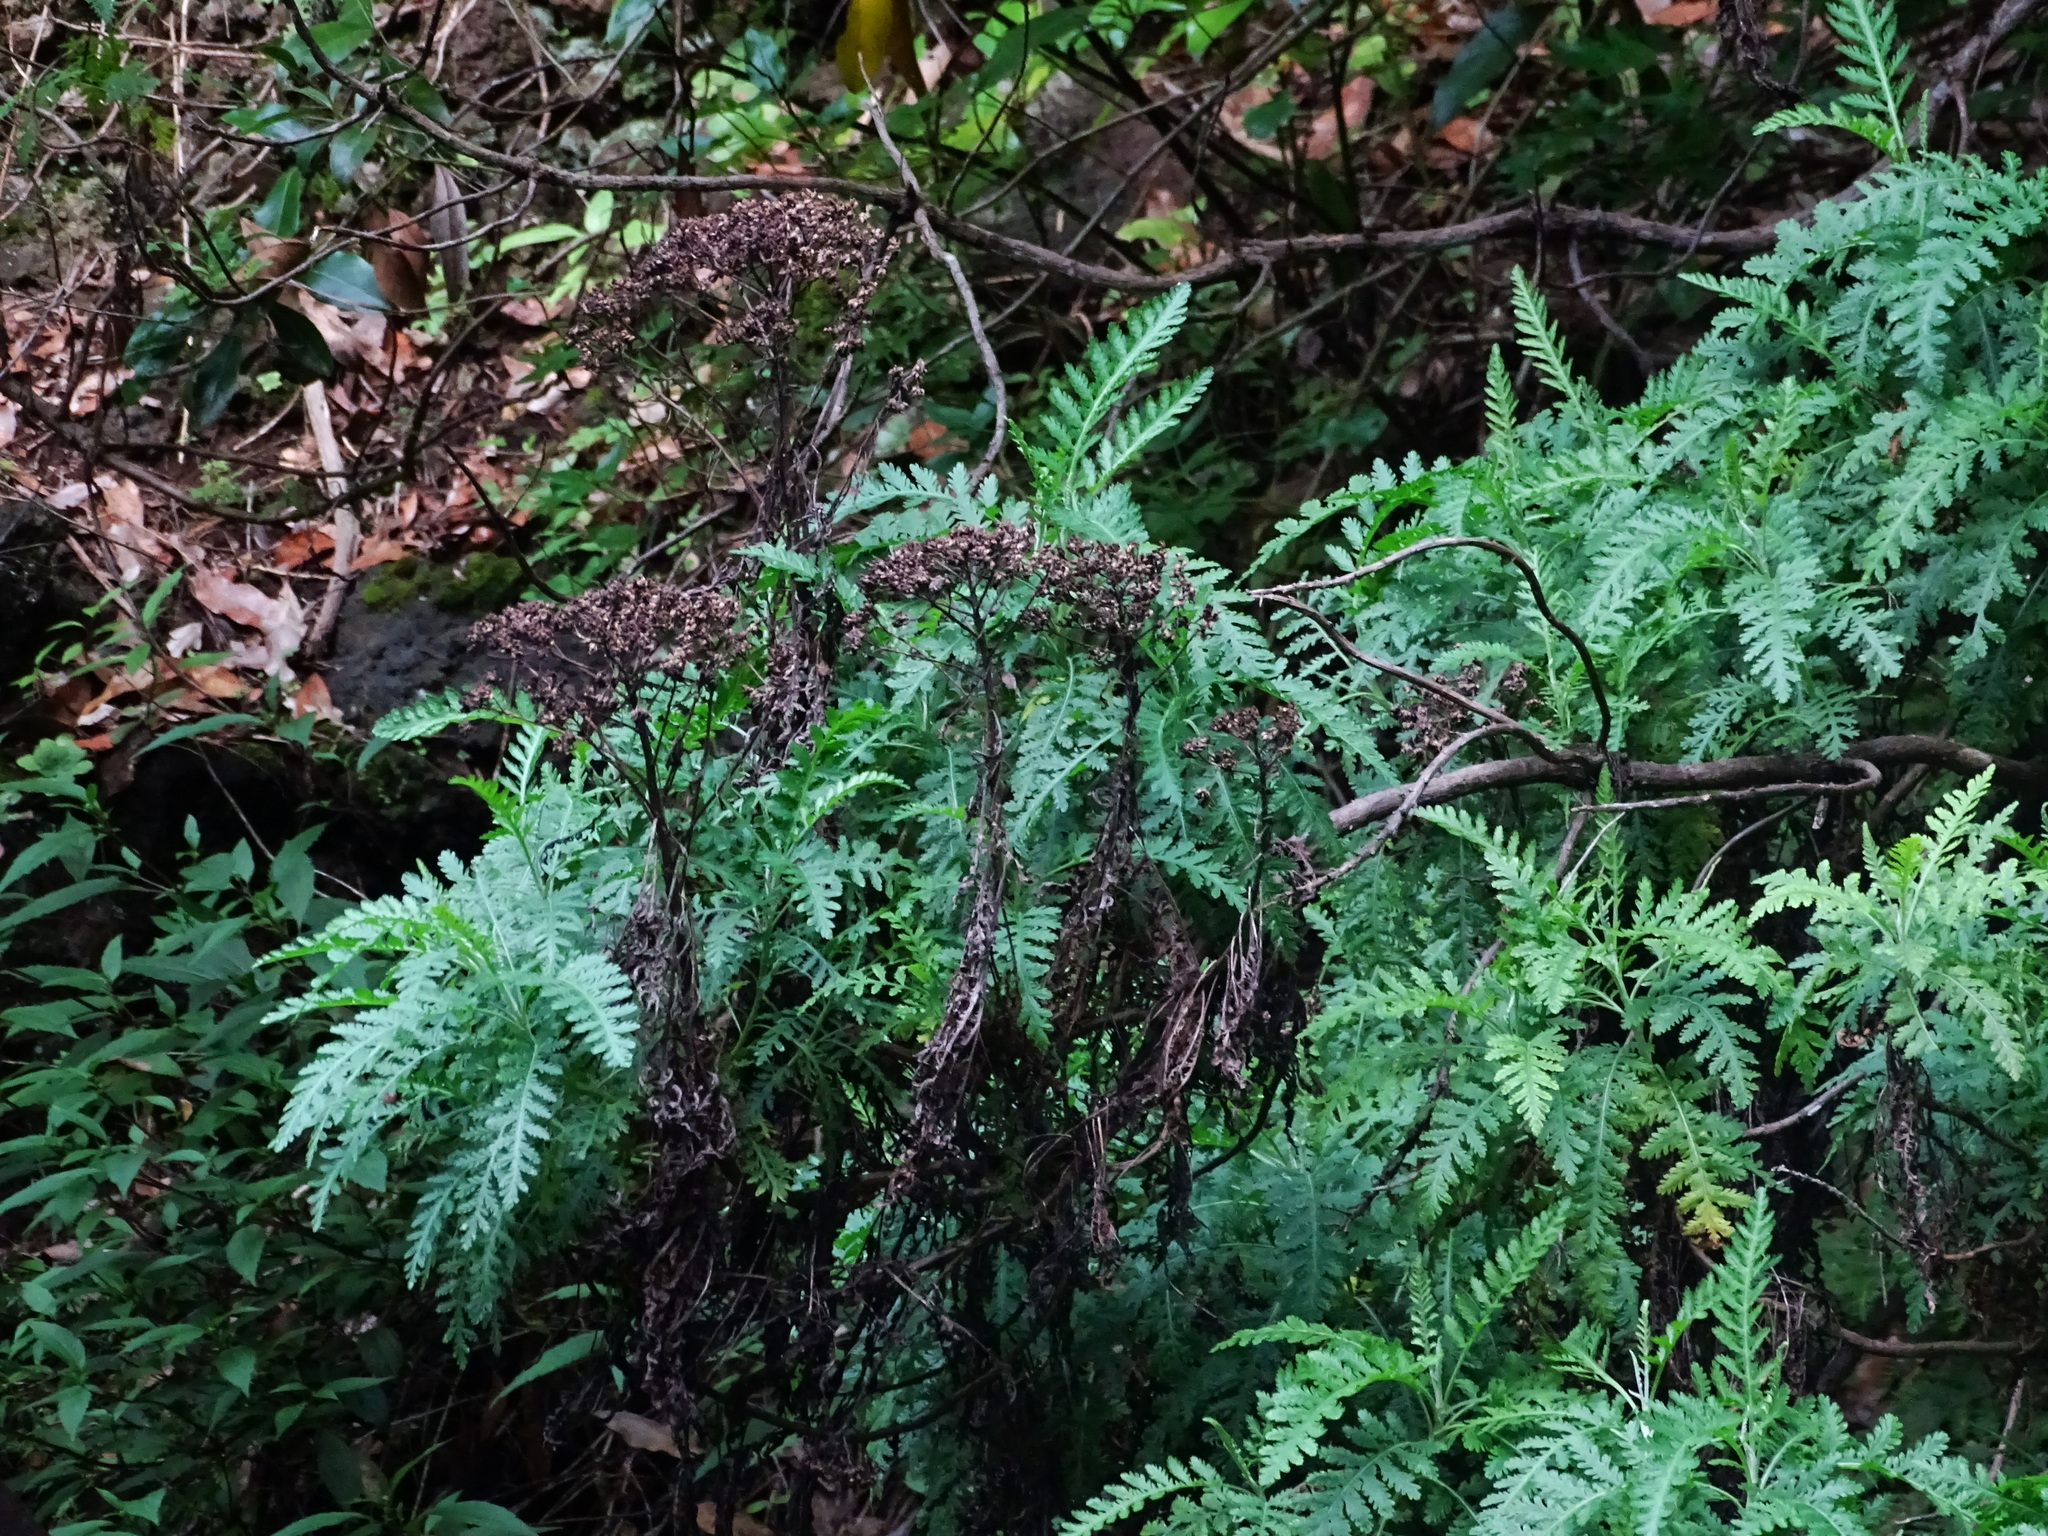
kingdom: Plantae
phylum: Tracheophyta
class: Magnoliopsida
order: Asterales
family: Asteraceae
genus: Gonospermum
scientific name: Gonospermum canariense
